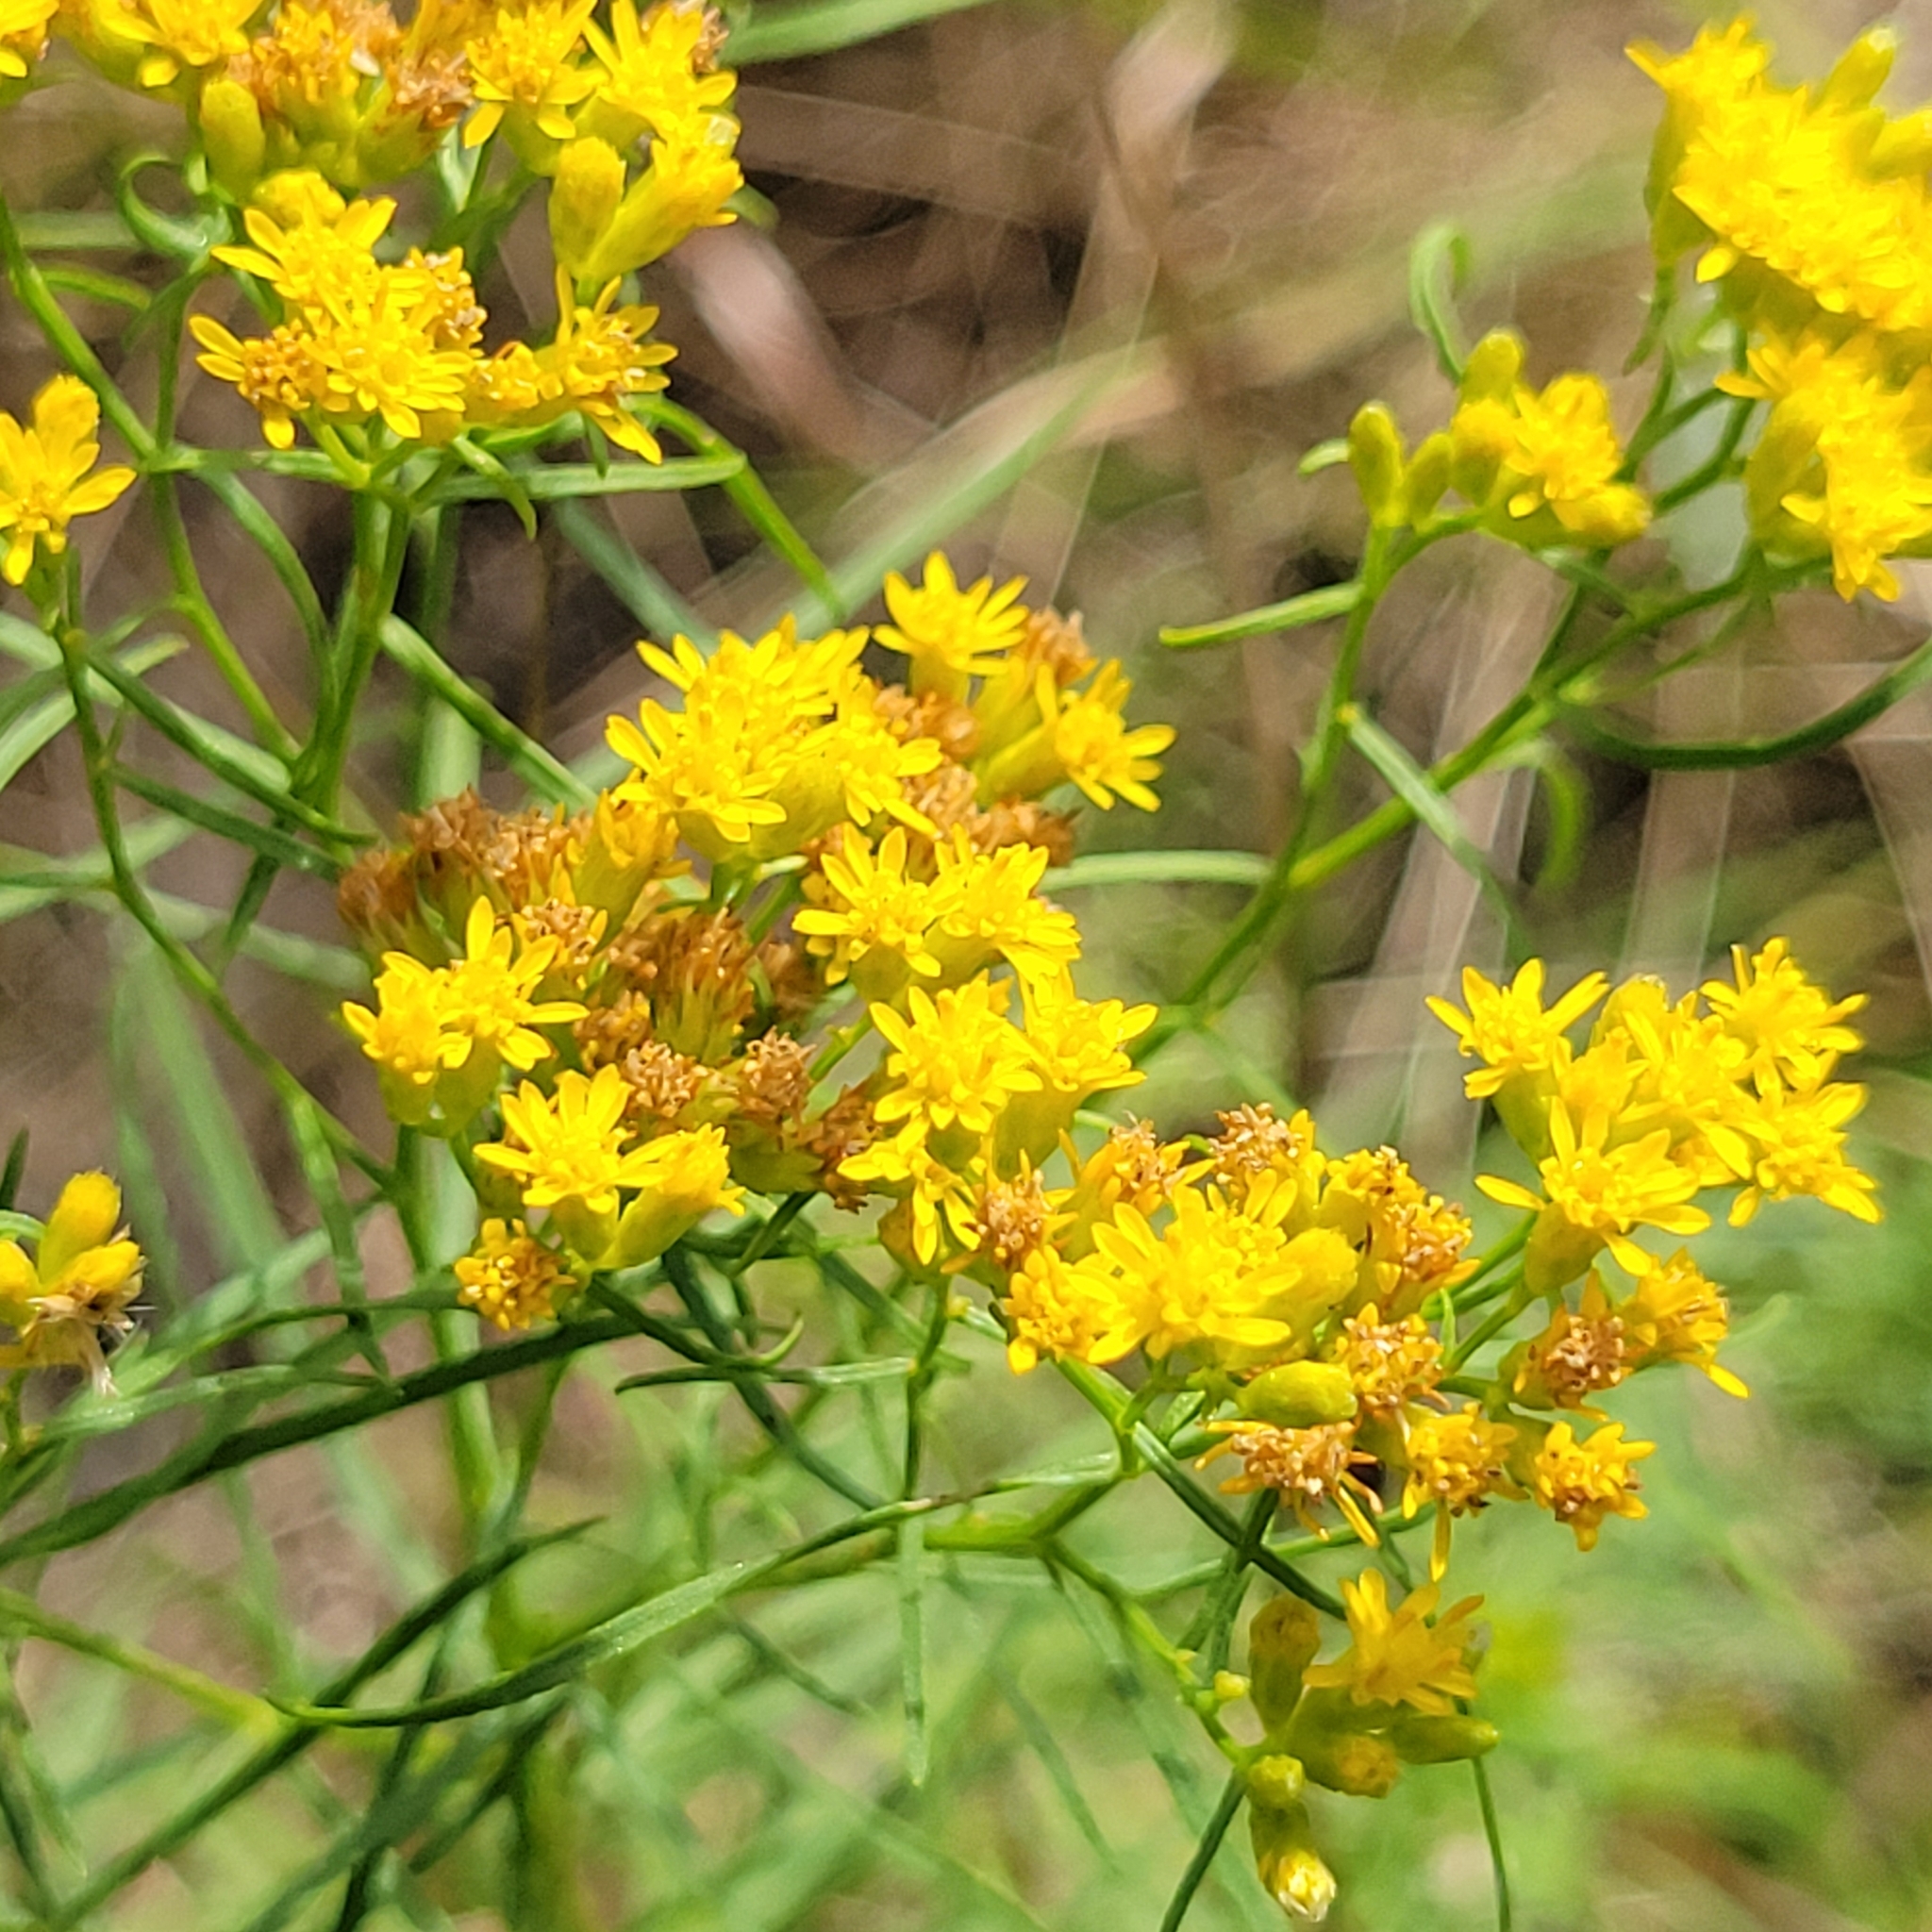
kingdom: Plantae
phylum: Tracheophyta
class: Magnoliopsida
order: Asterales
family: Asteraceae
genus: Euthamia
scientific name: Euthamia caroliniana
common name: Coastal plain goldentop
